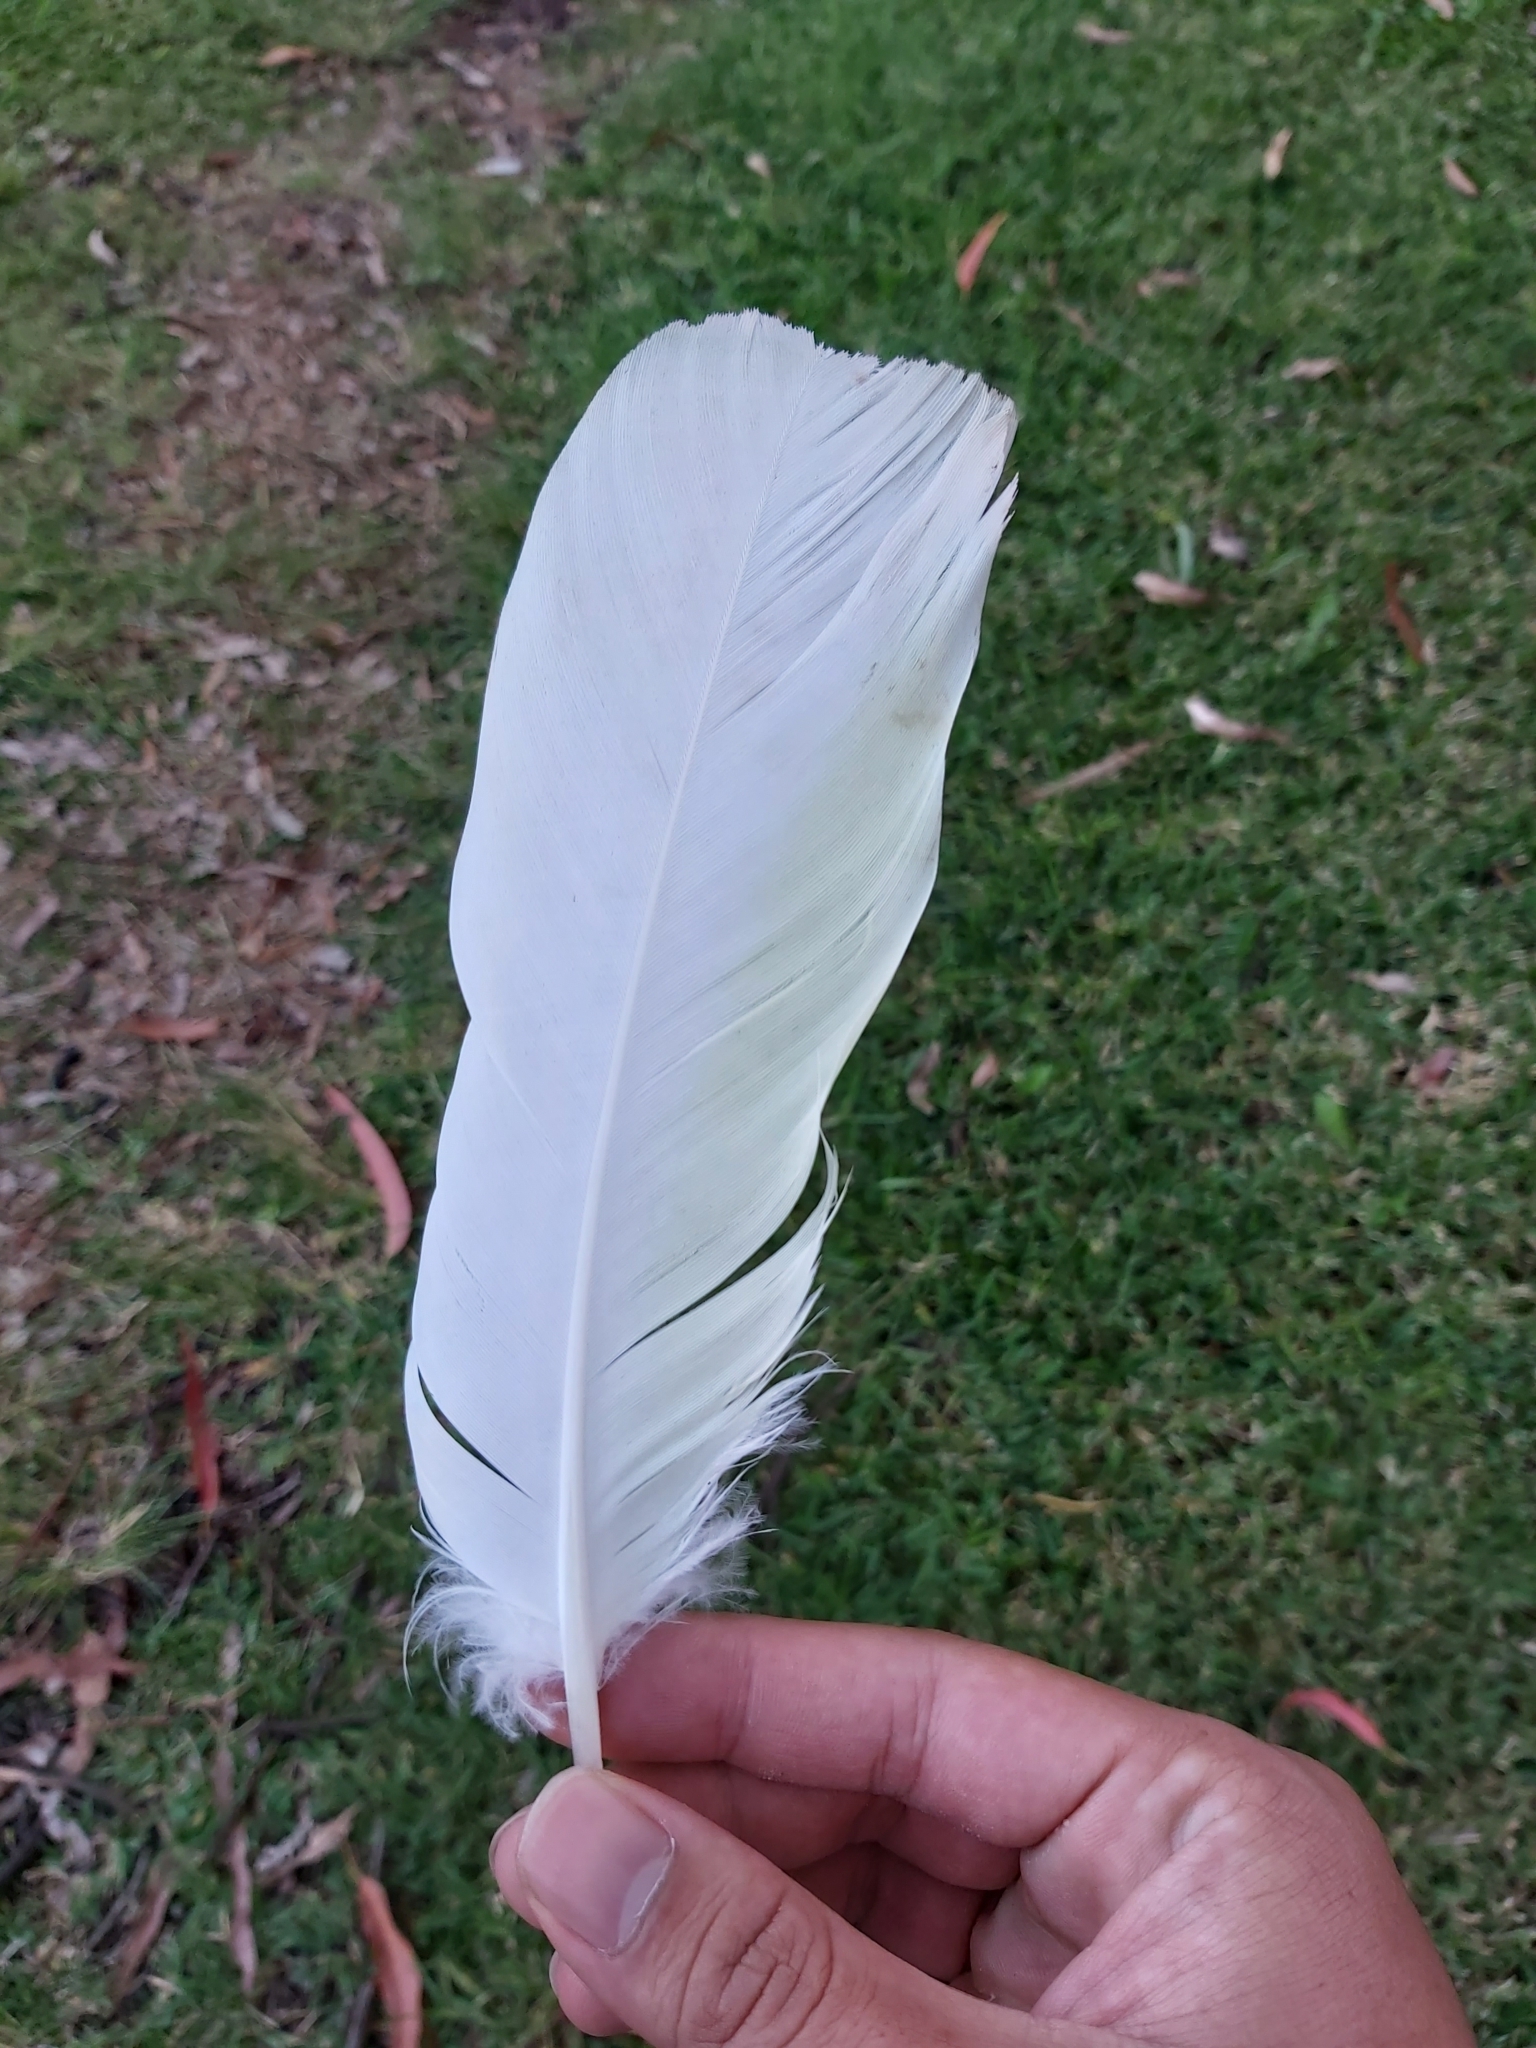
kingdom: Animalia
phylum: Chordata
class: Aves
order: Psittaciformes
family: Psittacidae
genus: Cacatua
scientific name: Cacatua galerita
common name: Sulphur-crested cockatoo
